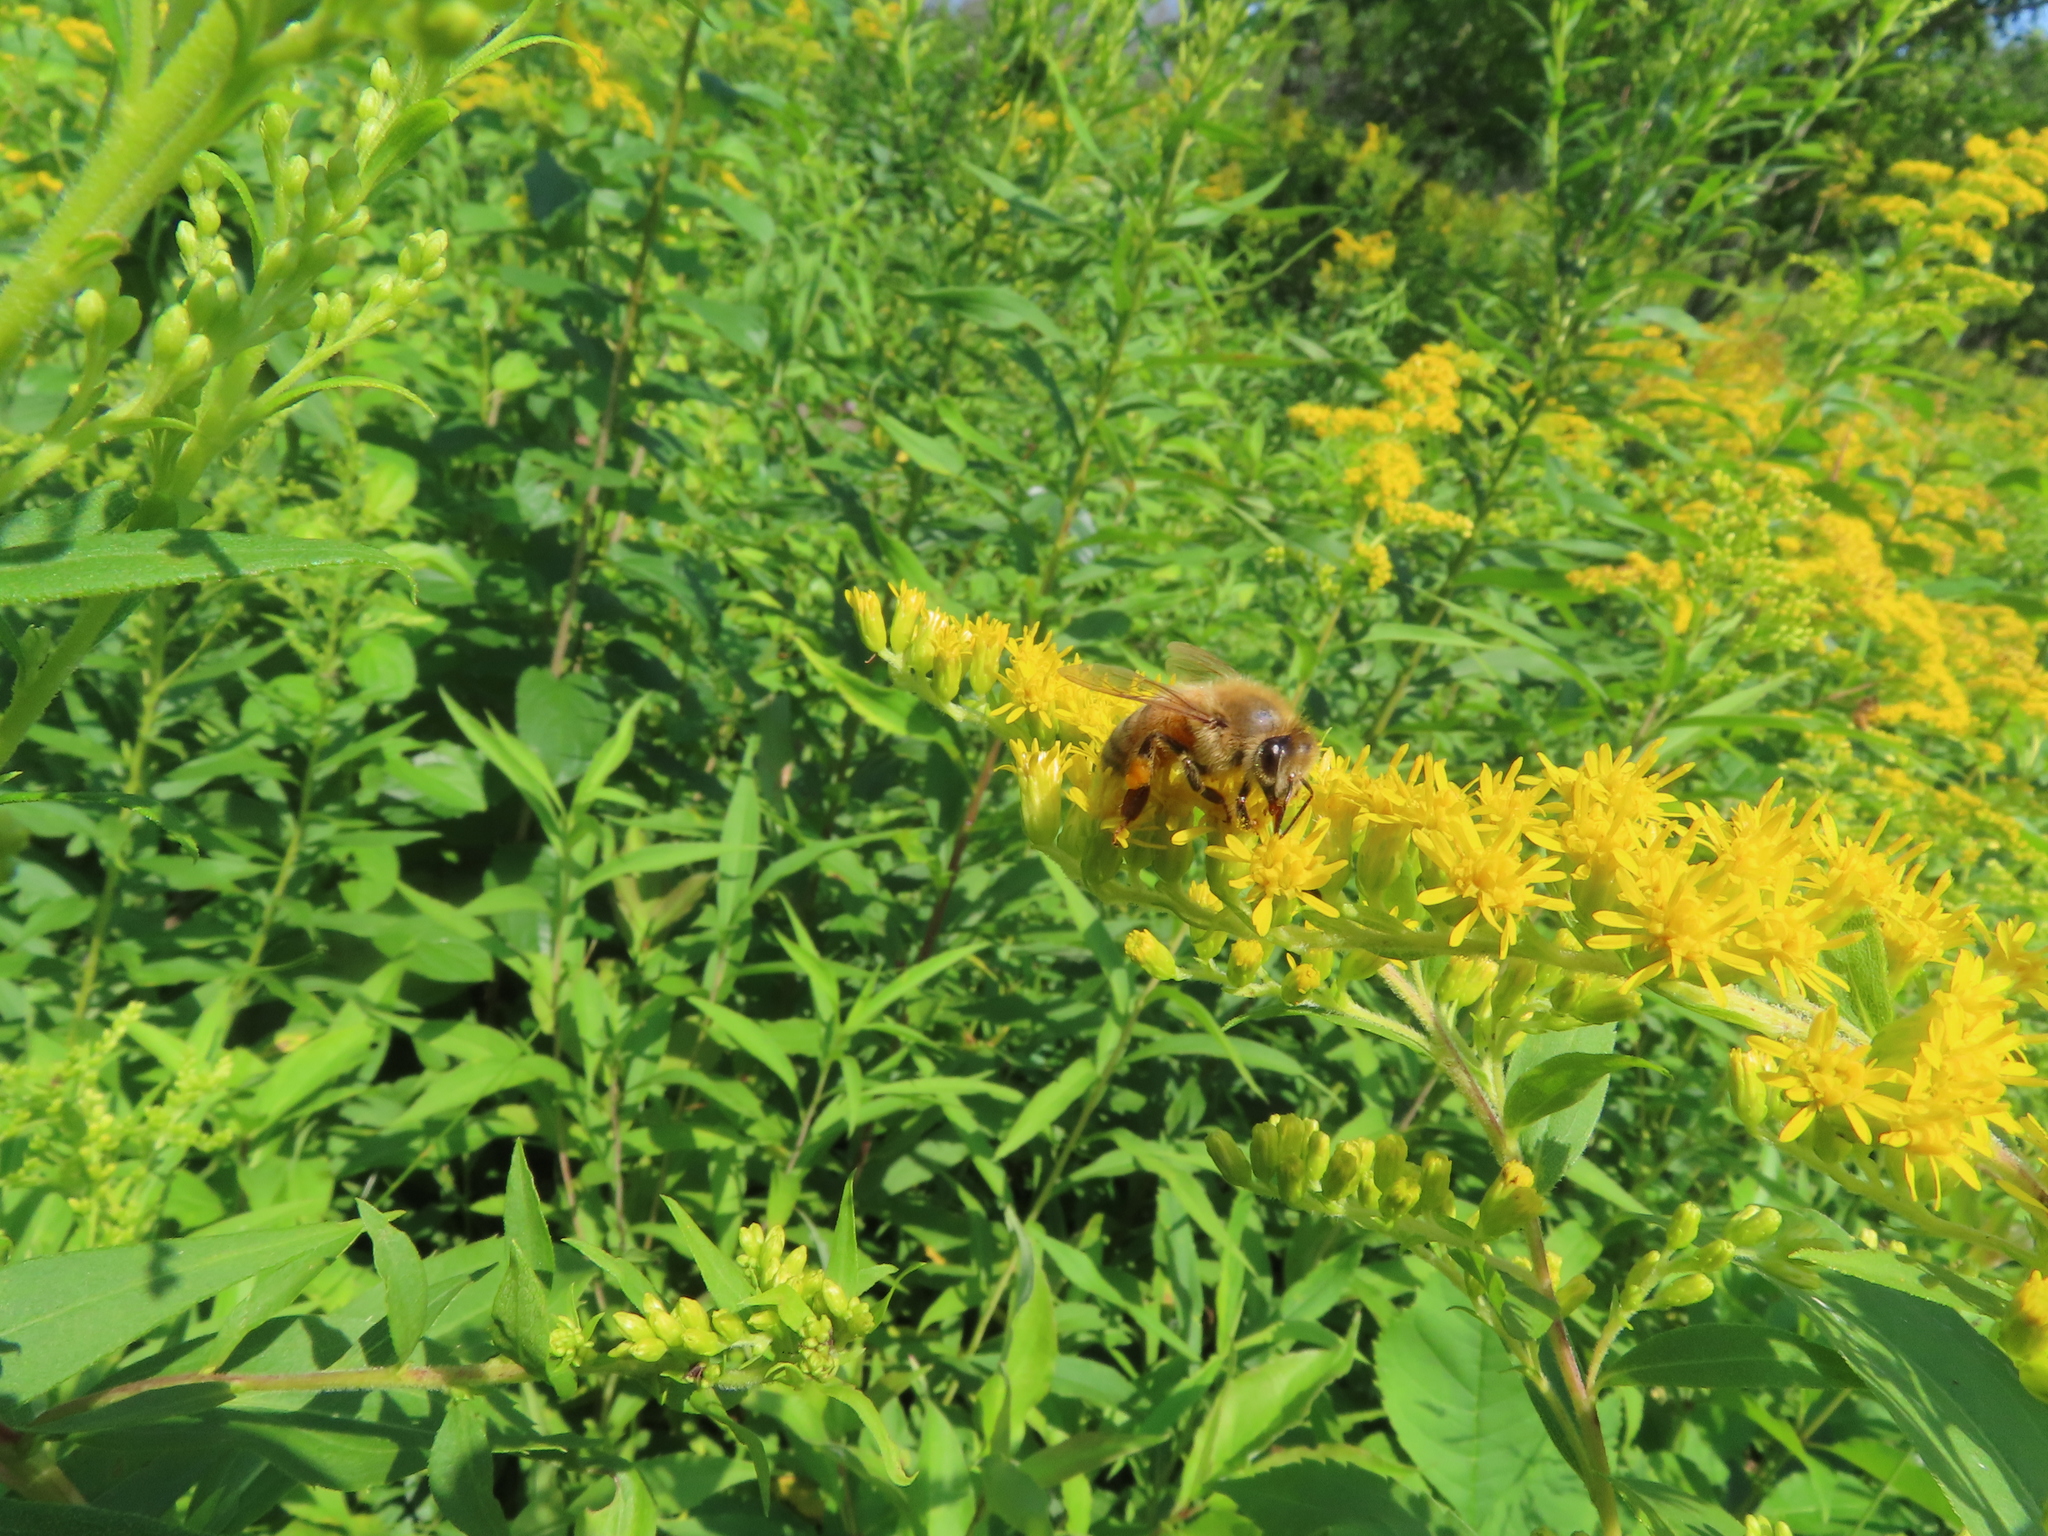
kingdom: Animalia
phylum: Arthropoda
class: Insecta
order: Hymenoptera
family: Apidae
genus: Apis
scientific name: Apis mellifera
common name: Honey bee
